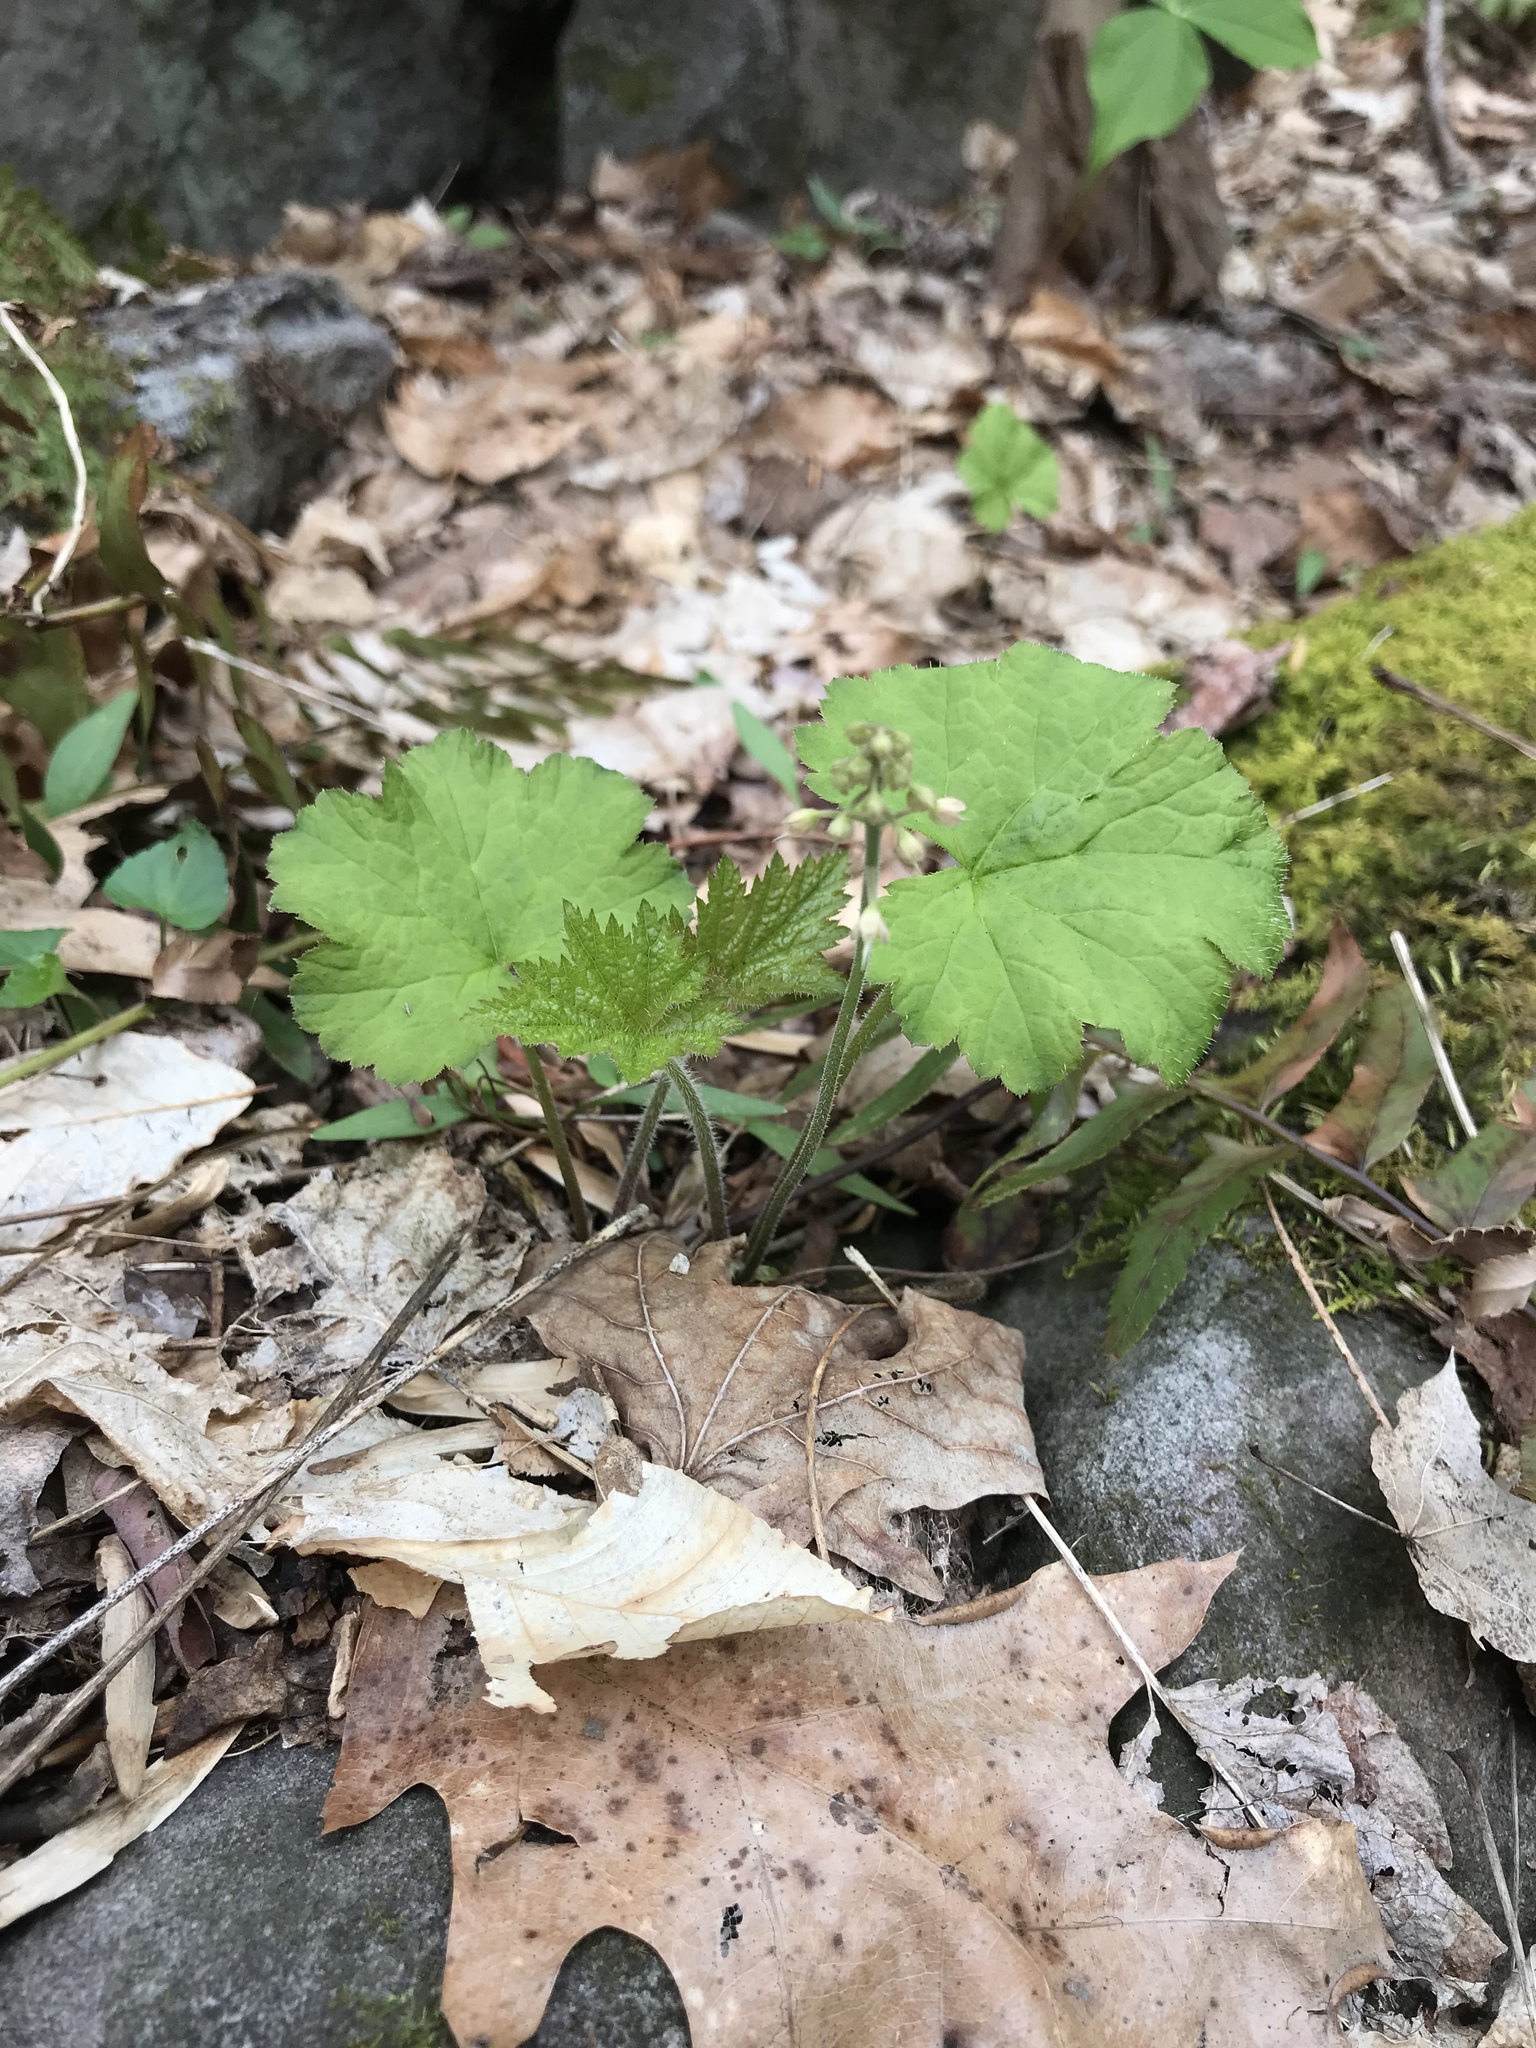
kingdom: Plantae
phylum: Tracheophyta
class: Magnoliopsida
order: Saxifragales
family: Saxifragaceae
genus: Tiarella
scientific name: Tiarella stolonifera
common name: Stoloniferous foamflower
